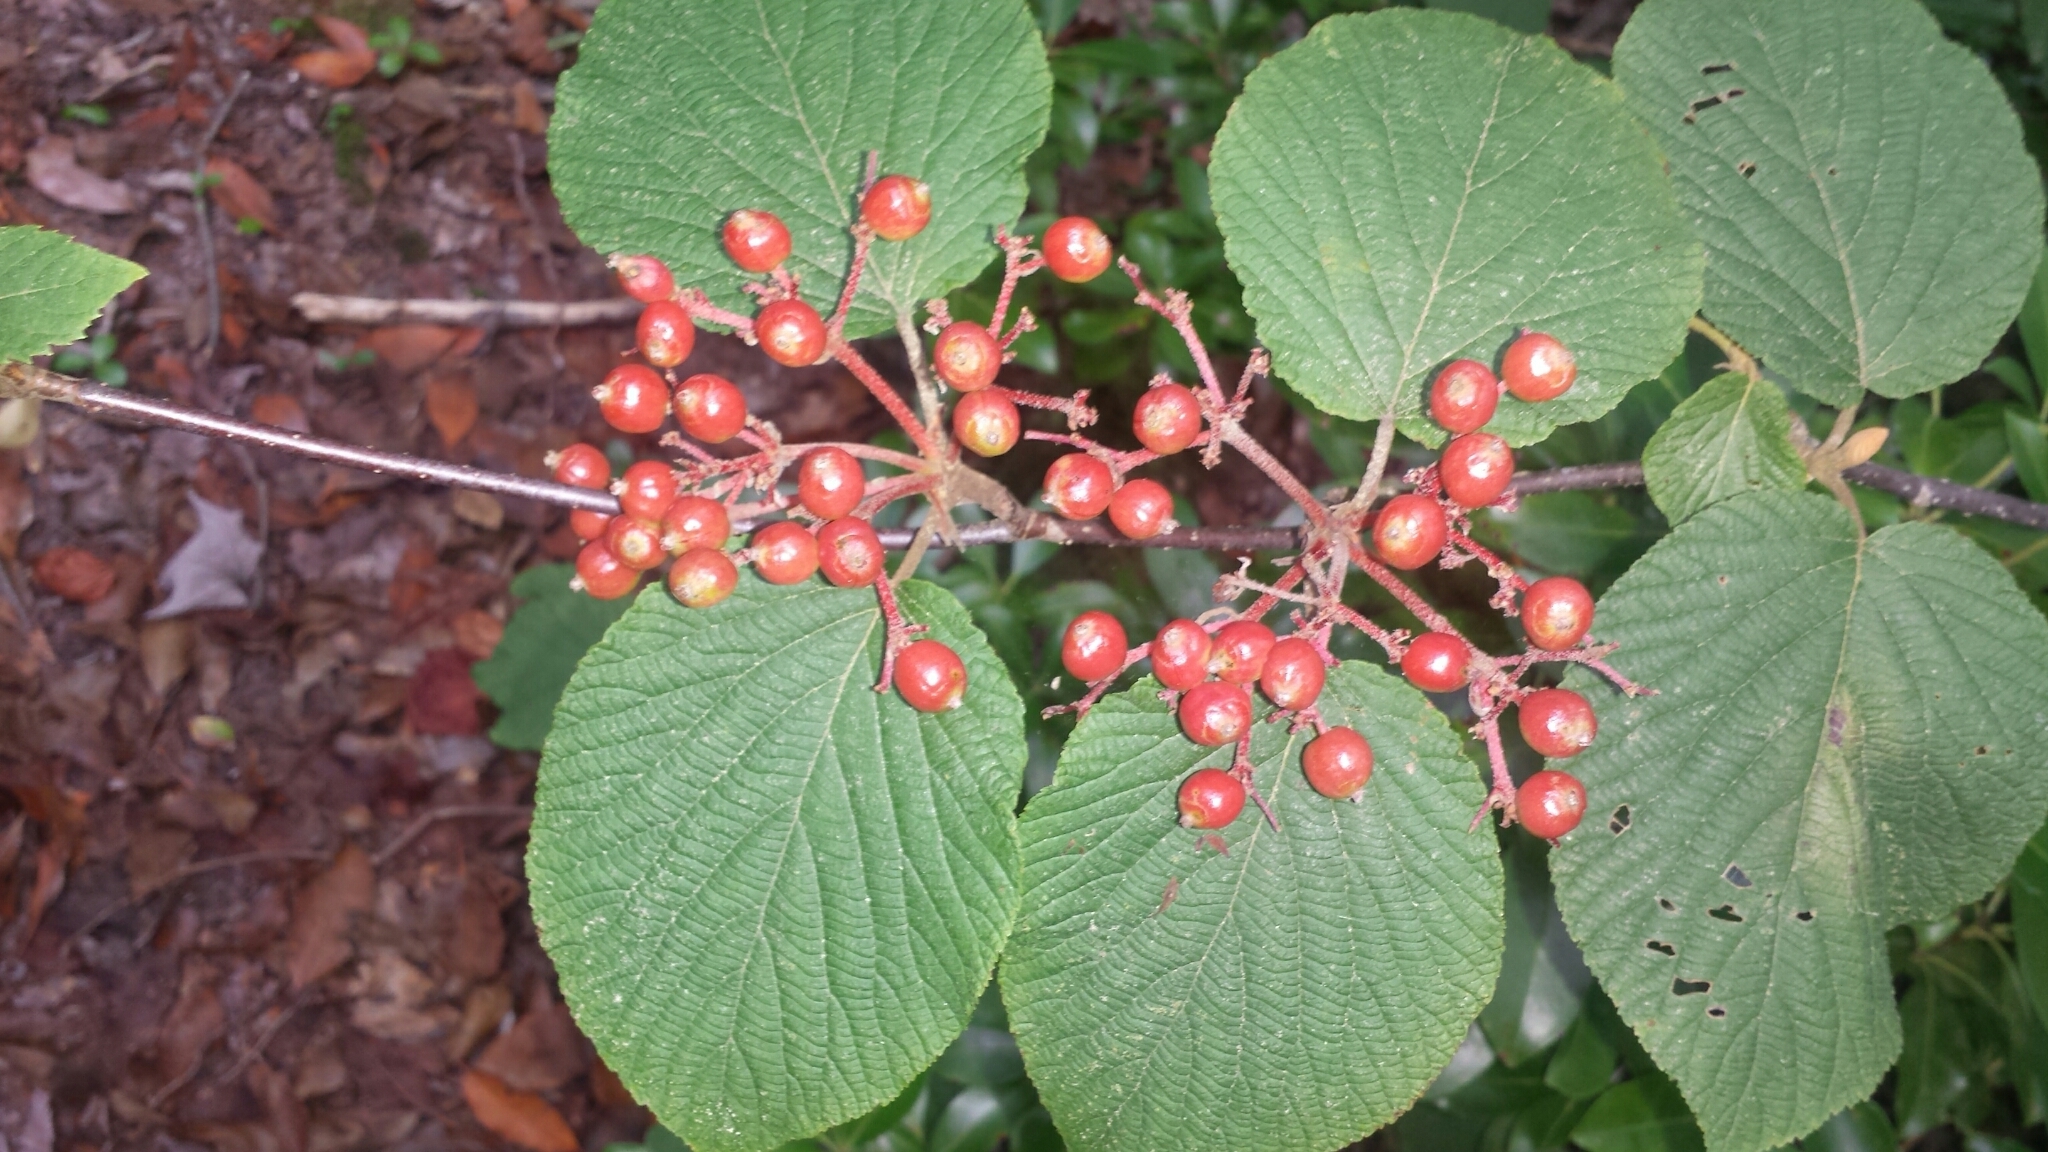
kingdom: Plantae
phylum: Tracheophyta
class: Magnoliopsida
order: Dipsacales
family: Viburnaceae
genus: Viburnum
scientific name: Viburnum lantanoides
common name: Hobblebush
